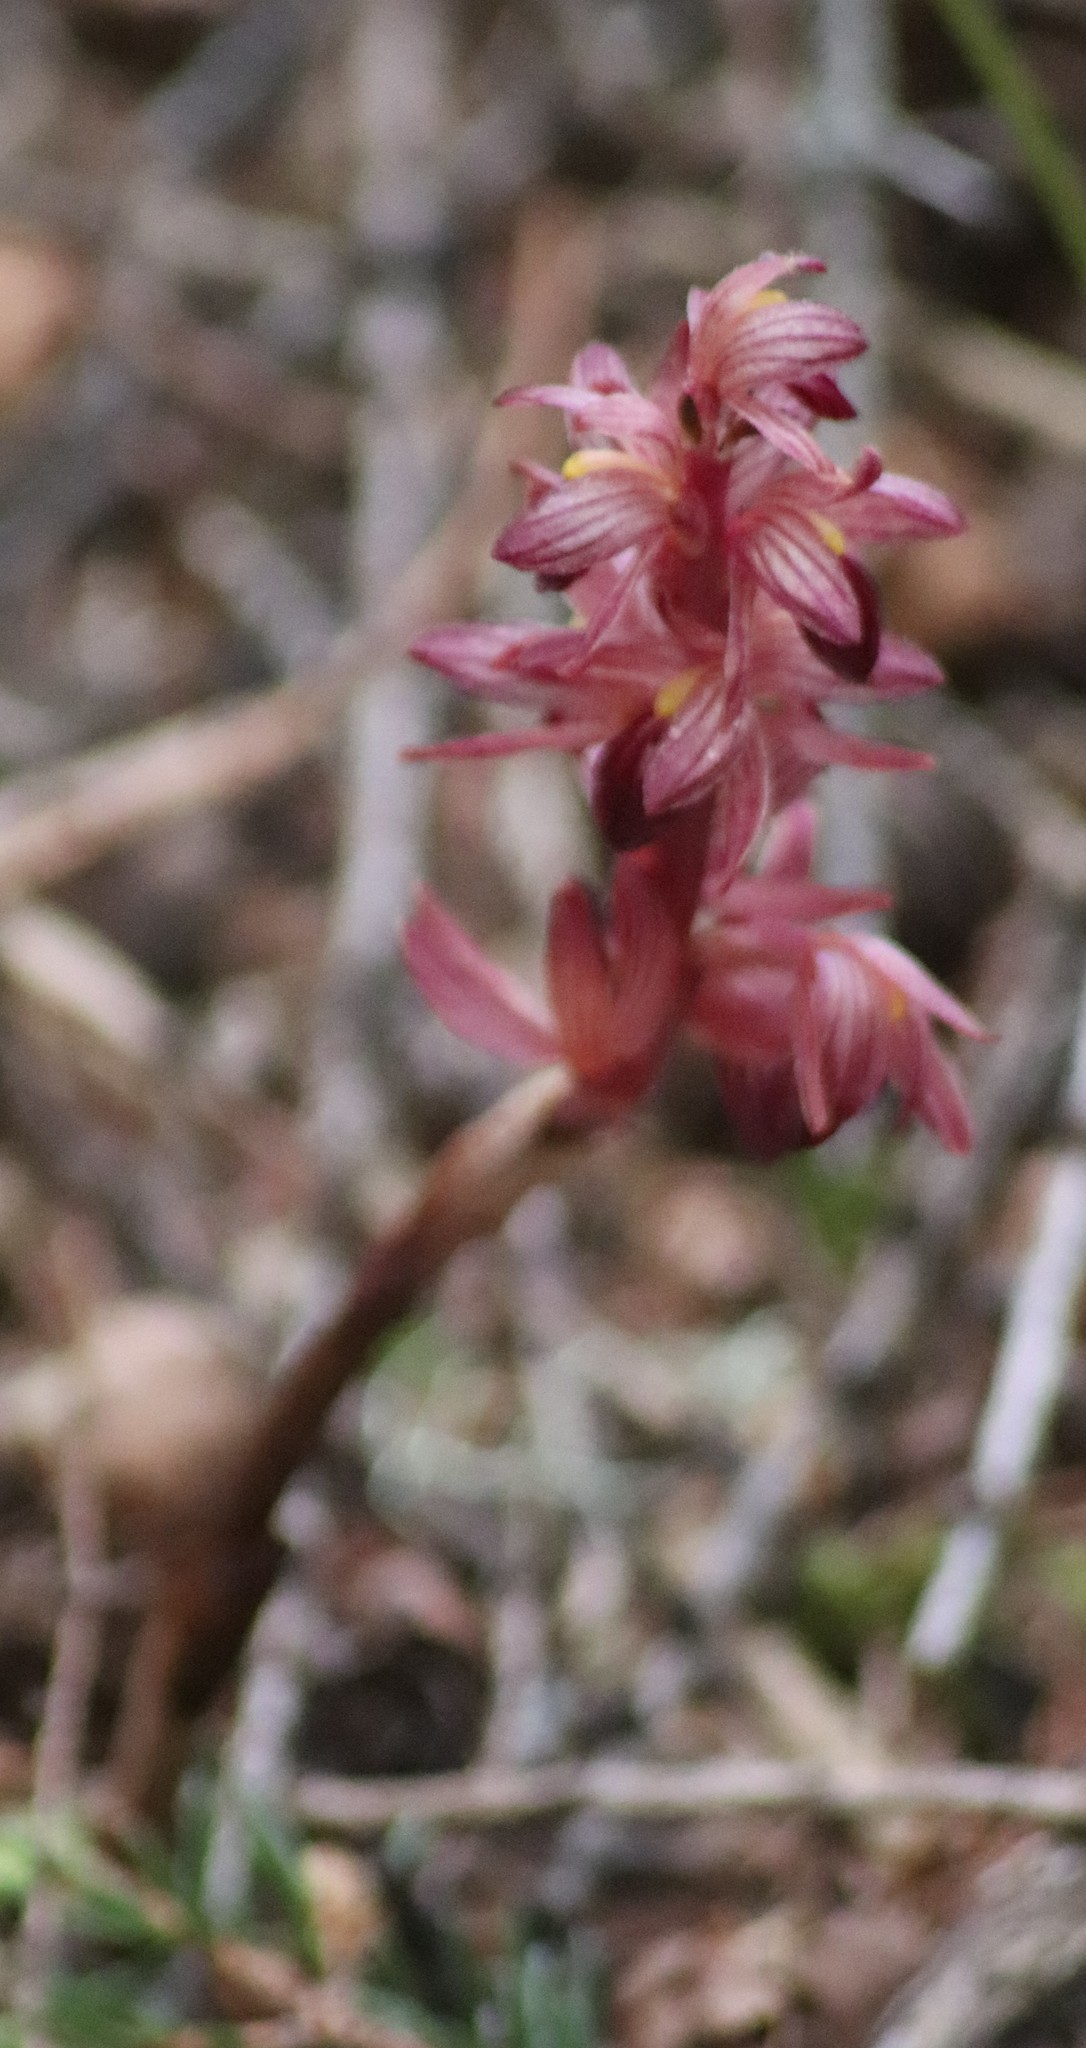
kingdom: Plantae
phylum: Tracheophyta
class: Liliopsida
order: Asparagales
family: Orchidaceae
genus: Corallorhiza
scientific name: Corallorhiza striata
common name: Hooded coralroot
